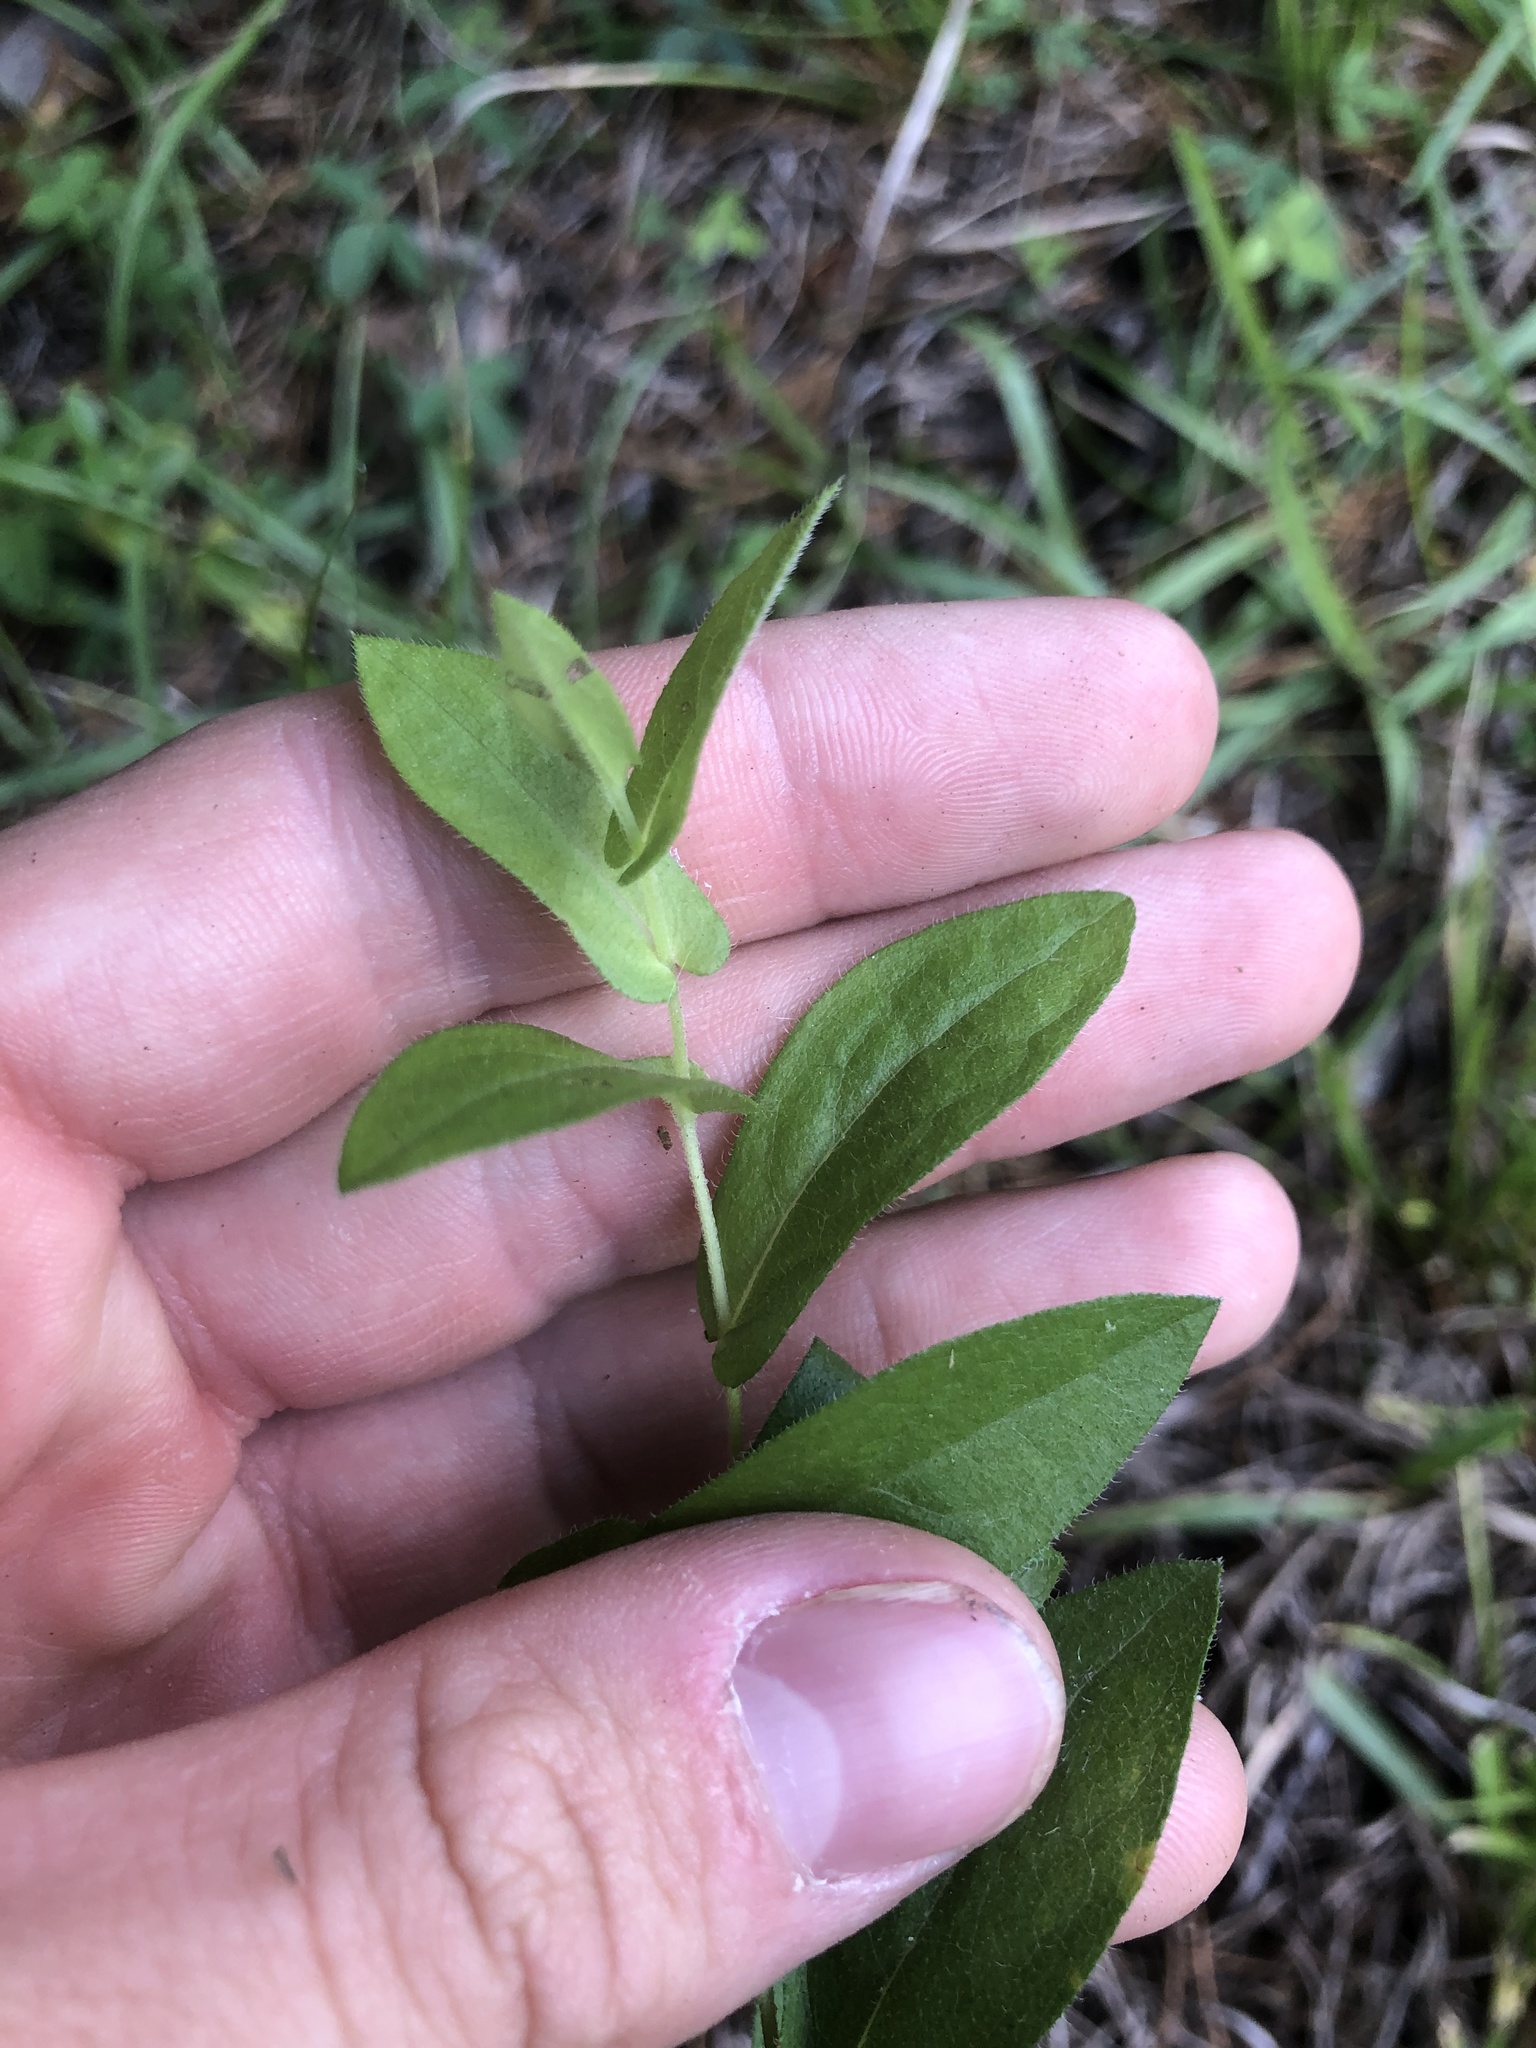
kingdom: Plantae
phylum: Tracheophyta
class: Magnoliopsida
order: Asterales
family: Asteraceae
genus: Symphyotrichum
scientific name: Symphyotrichum patens
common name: Late purple aster
